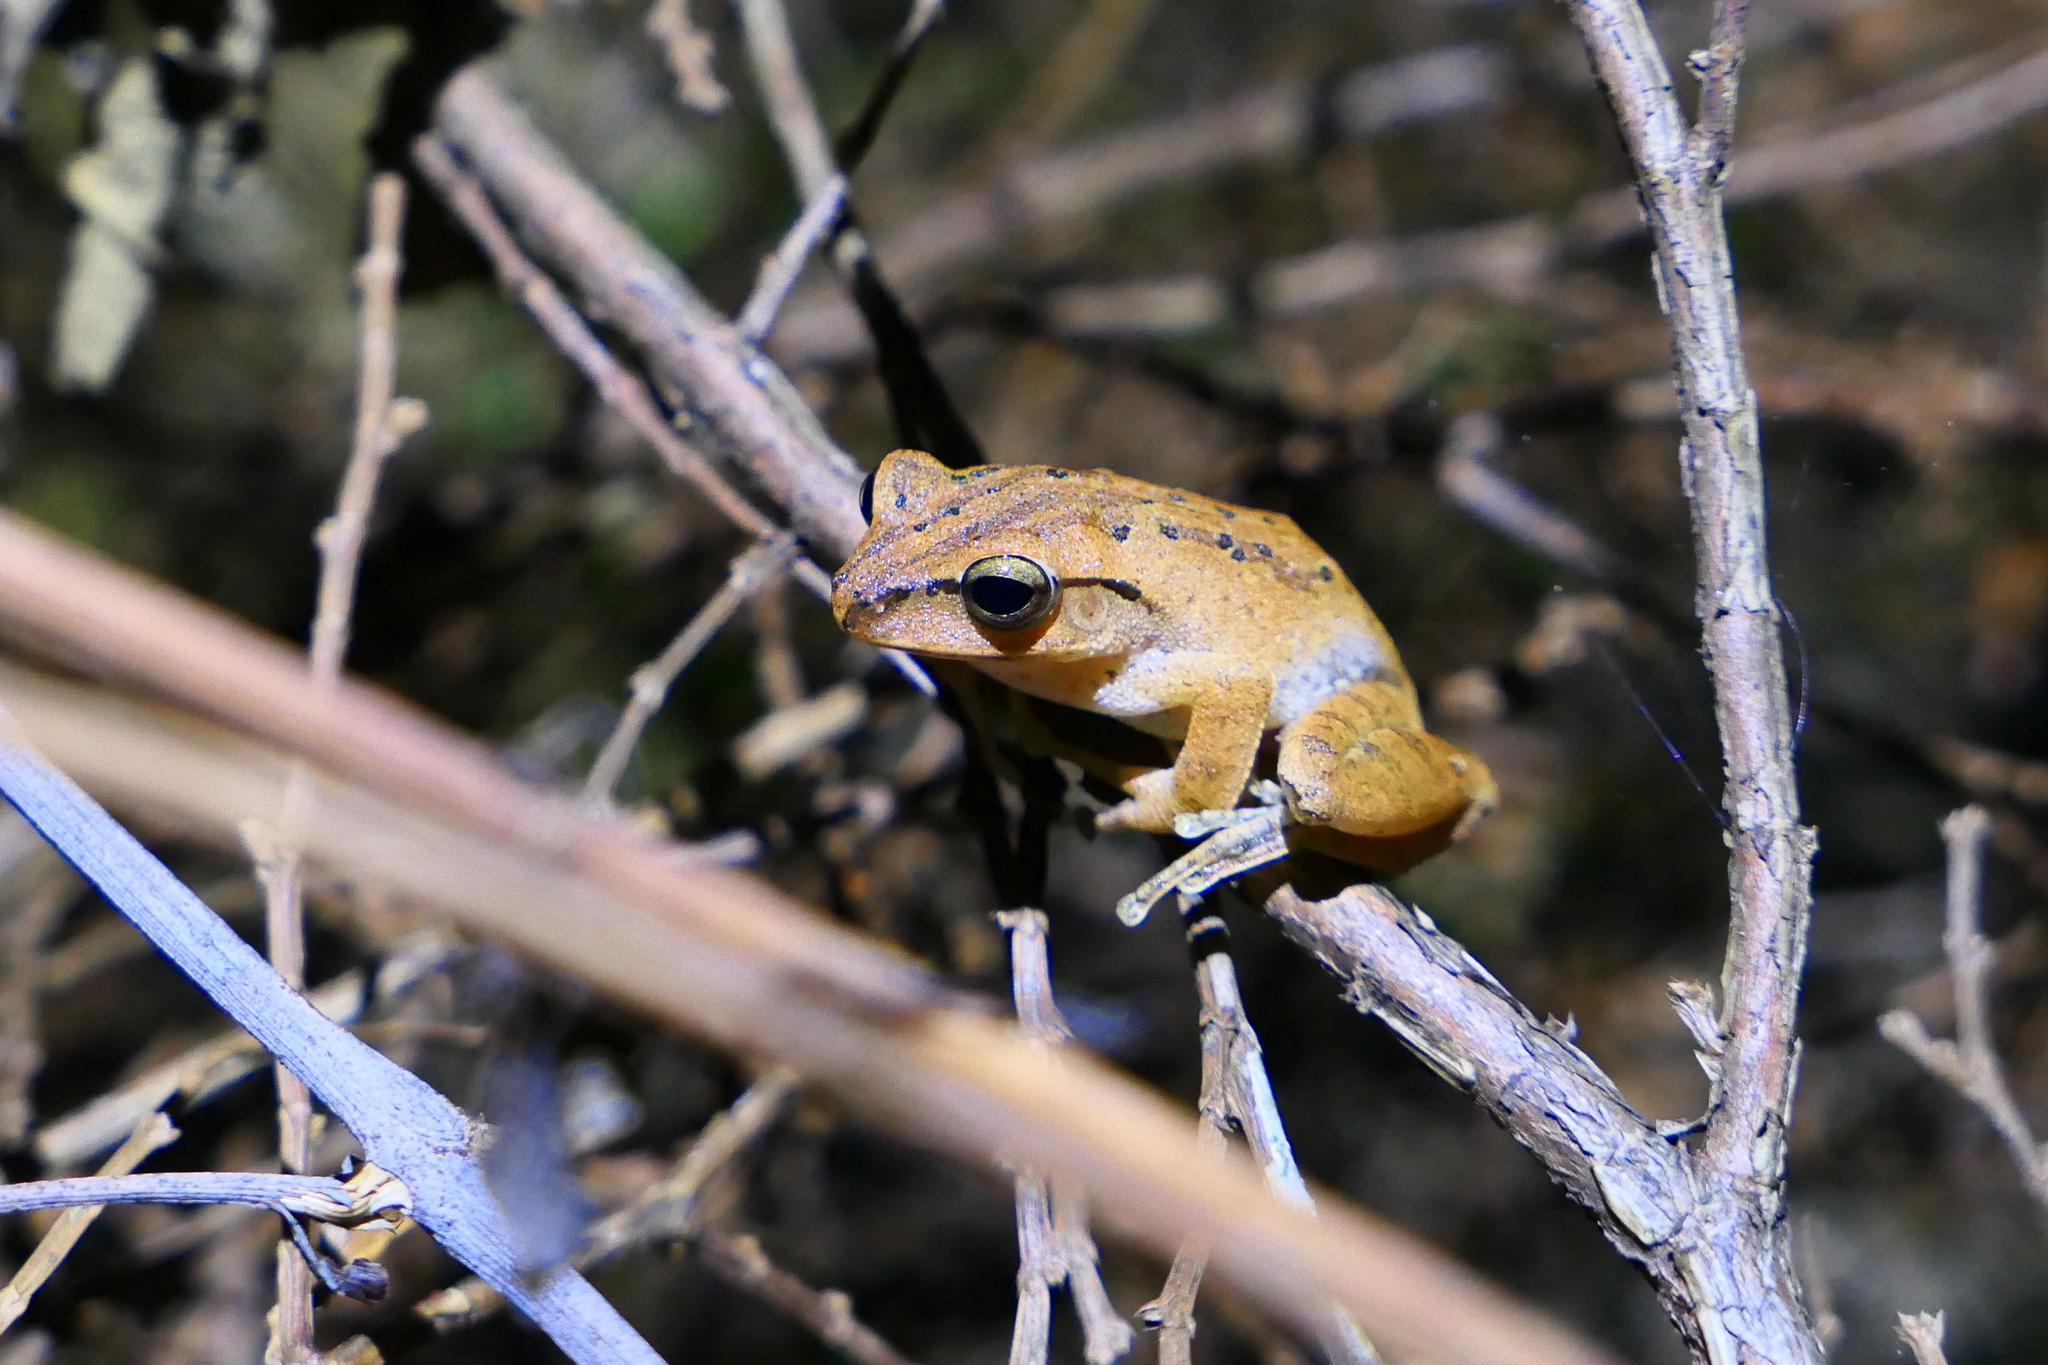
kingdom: Animalia
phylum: Chordata
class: Amphibia
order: Anura
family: Rhacophoridae
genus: Polypedates
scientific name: Polypedates braueri
